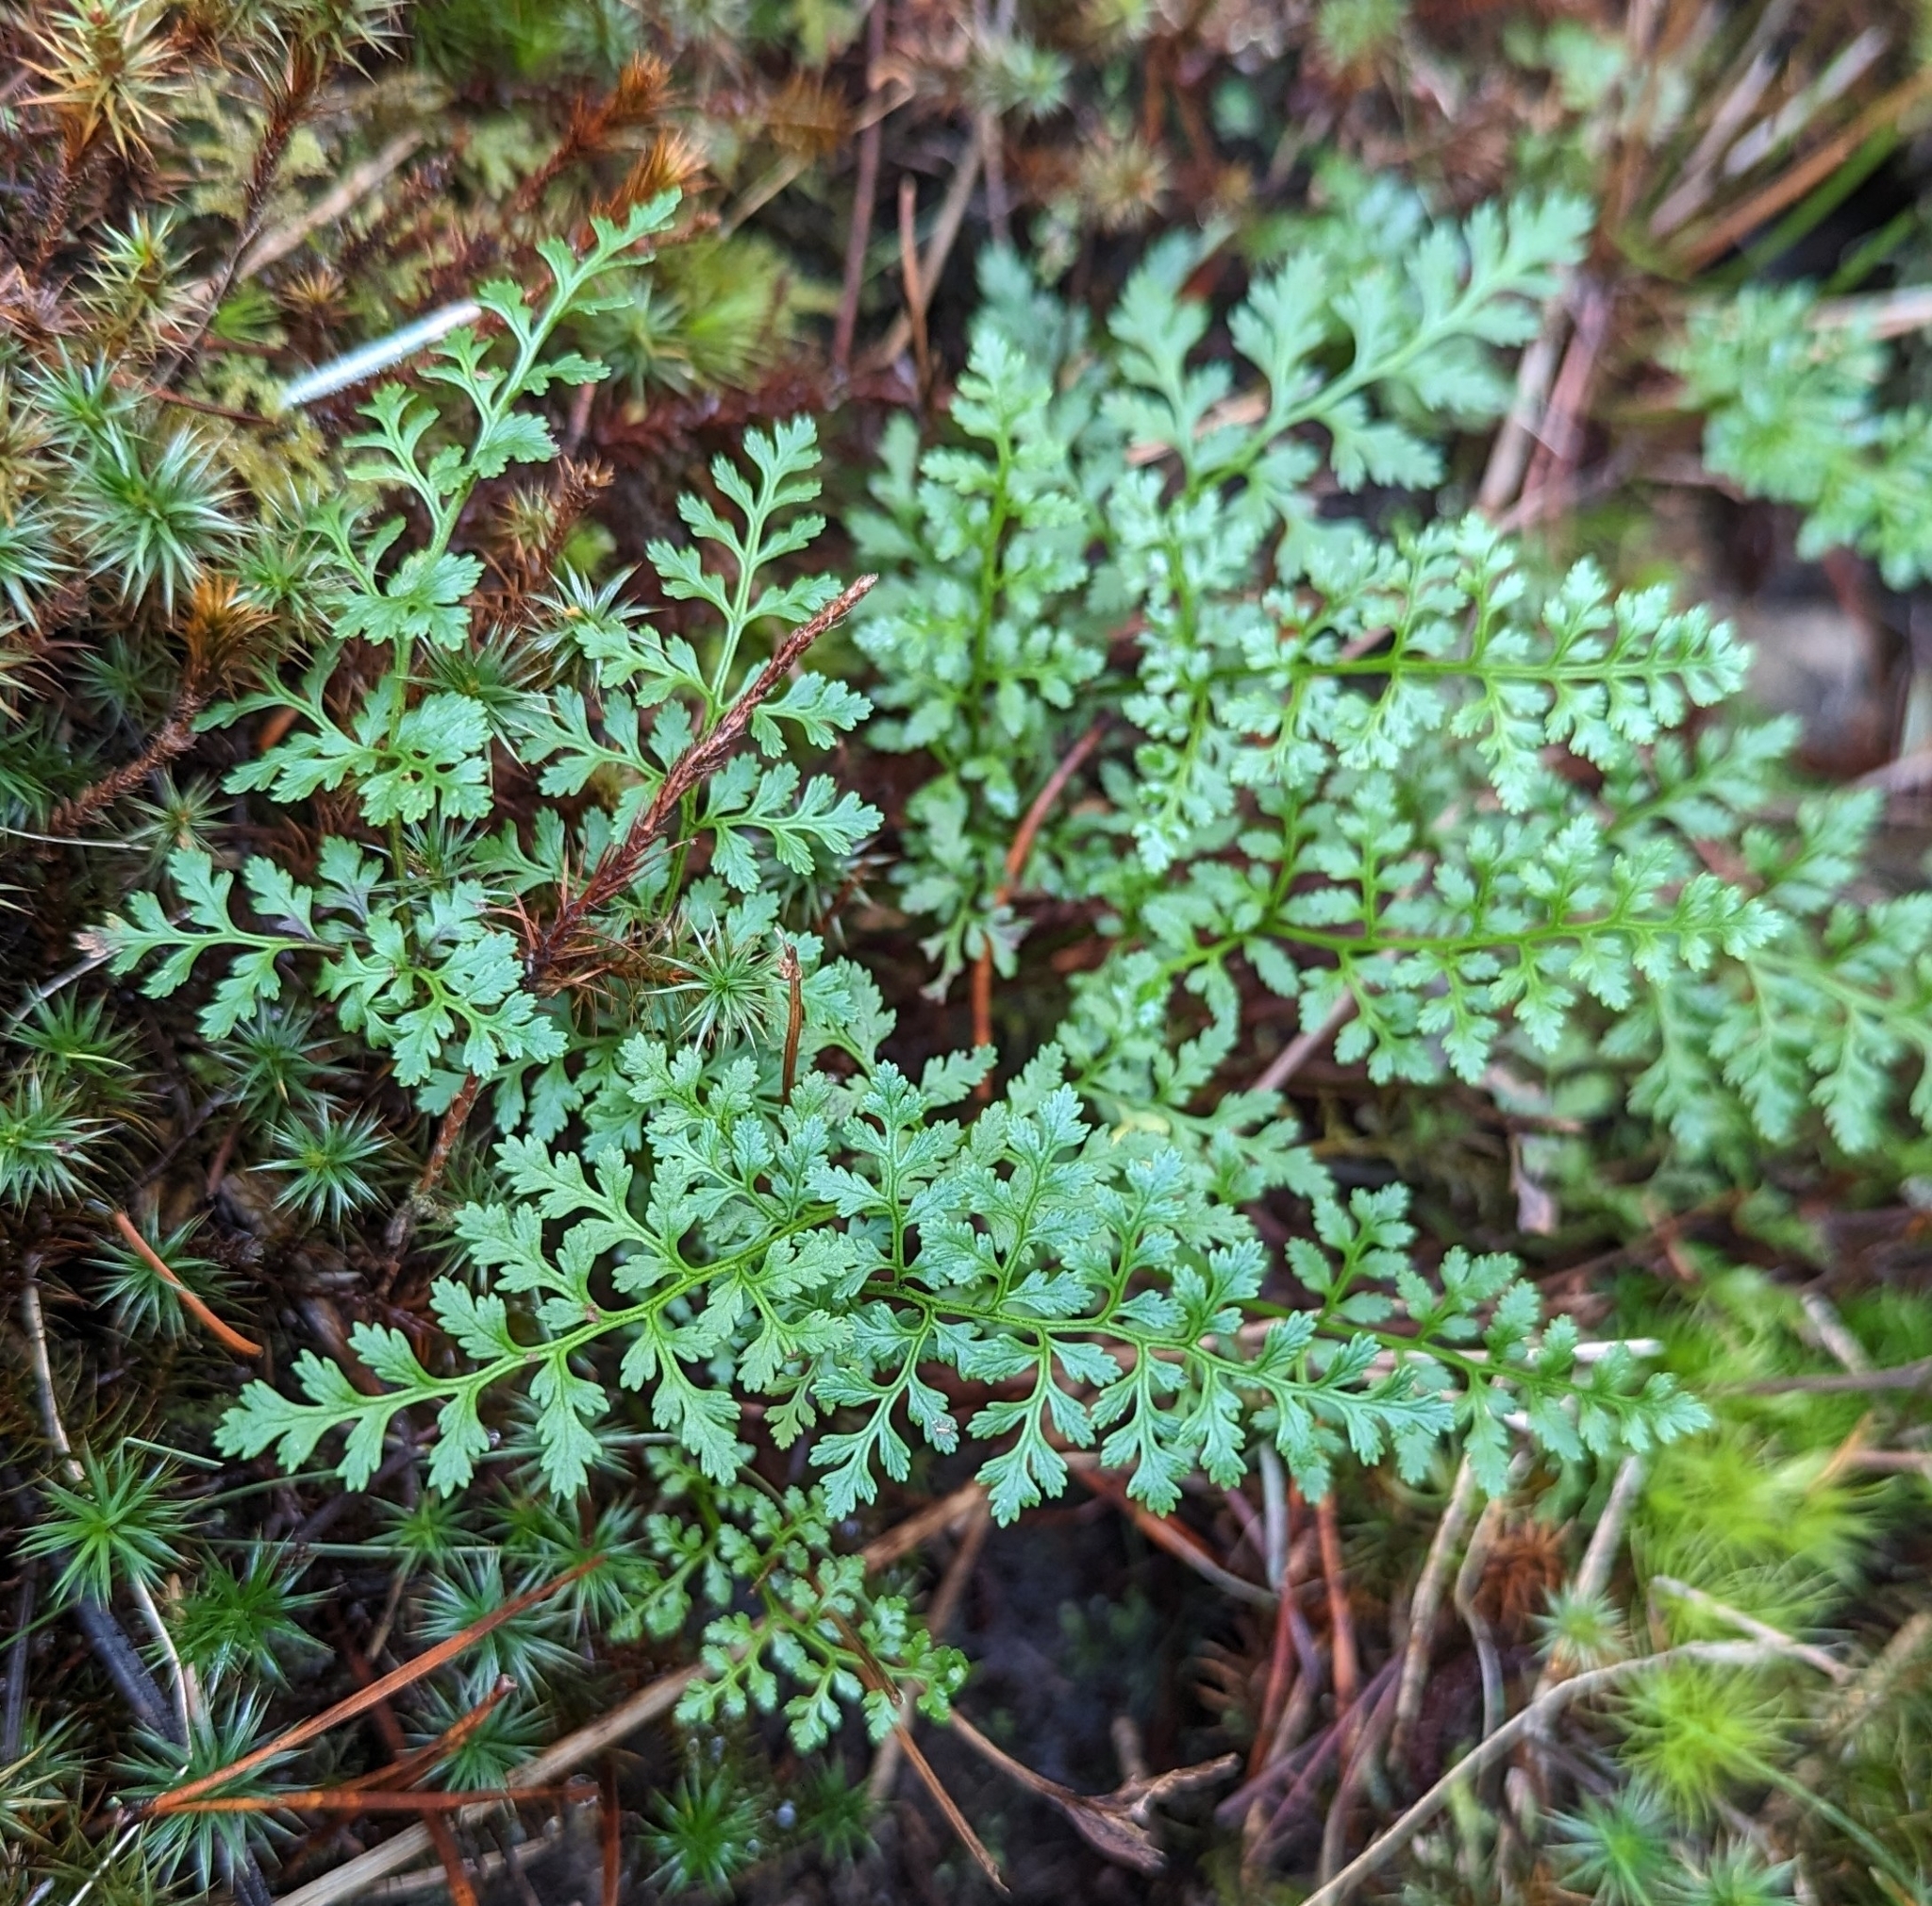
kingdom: Plantae
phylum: Tracheophyta
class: Polypodiopsida
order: Polypodiales
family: Pteridaceae
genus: Cryptogramma
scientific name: Cryptogramma acrostichoides
